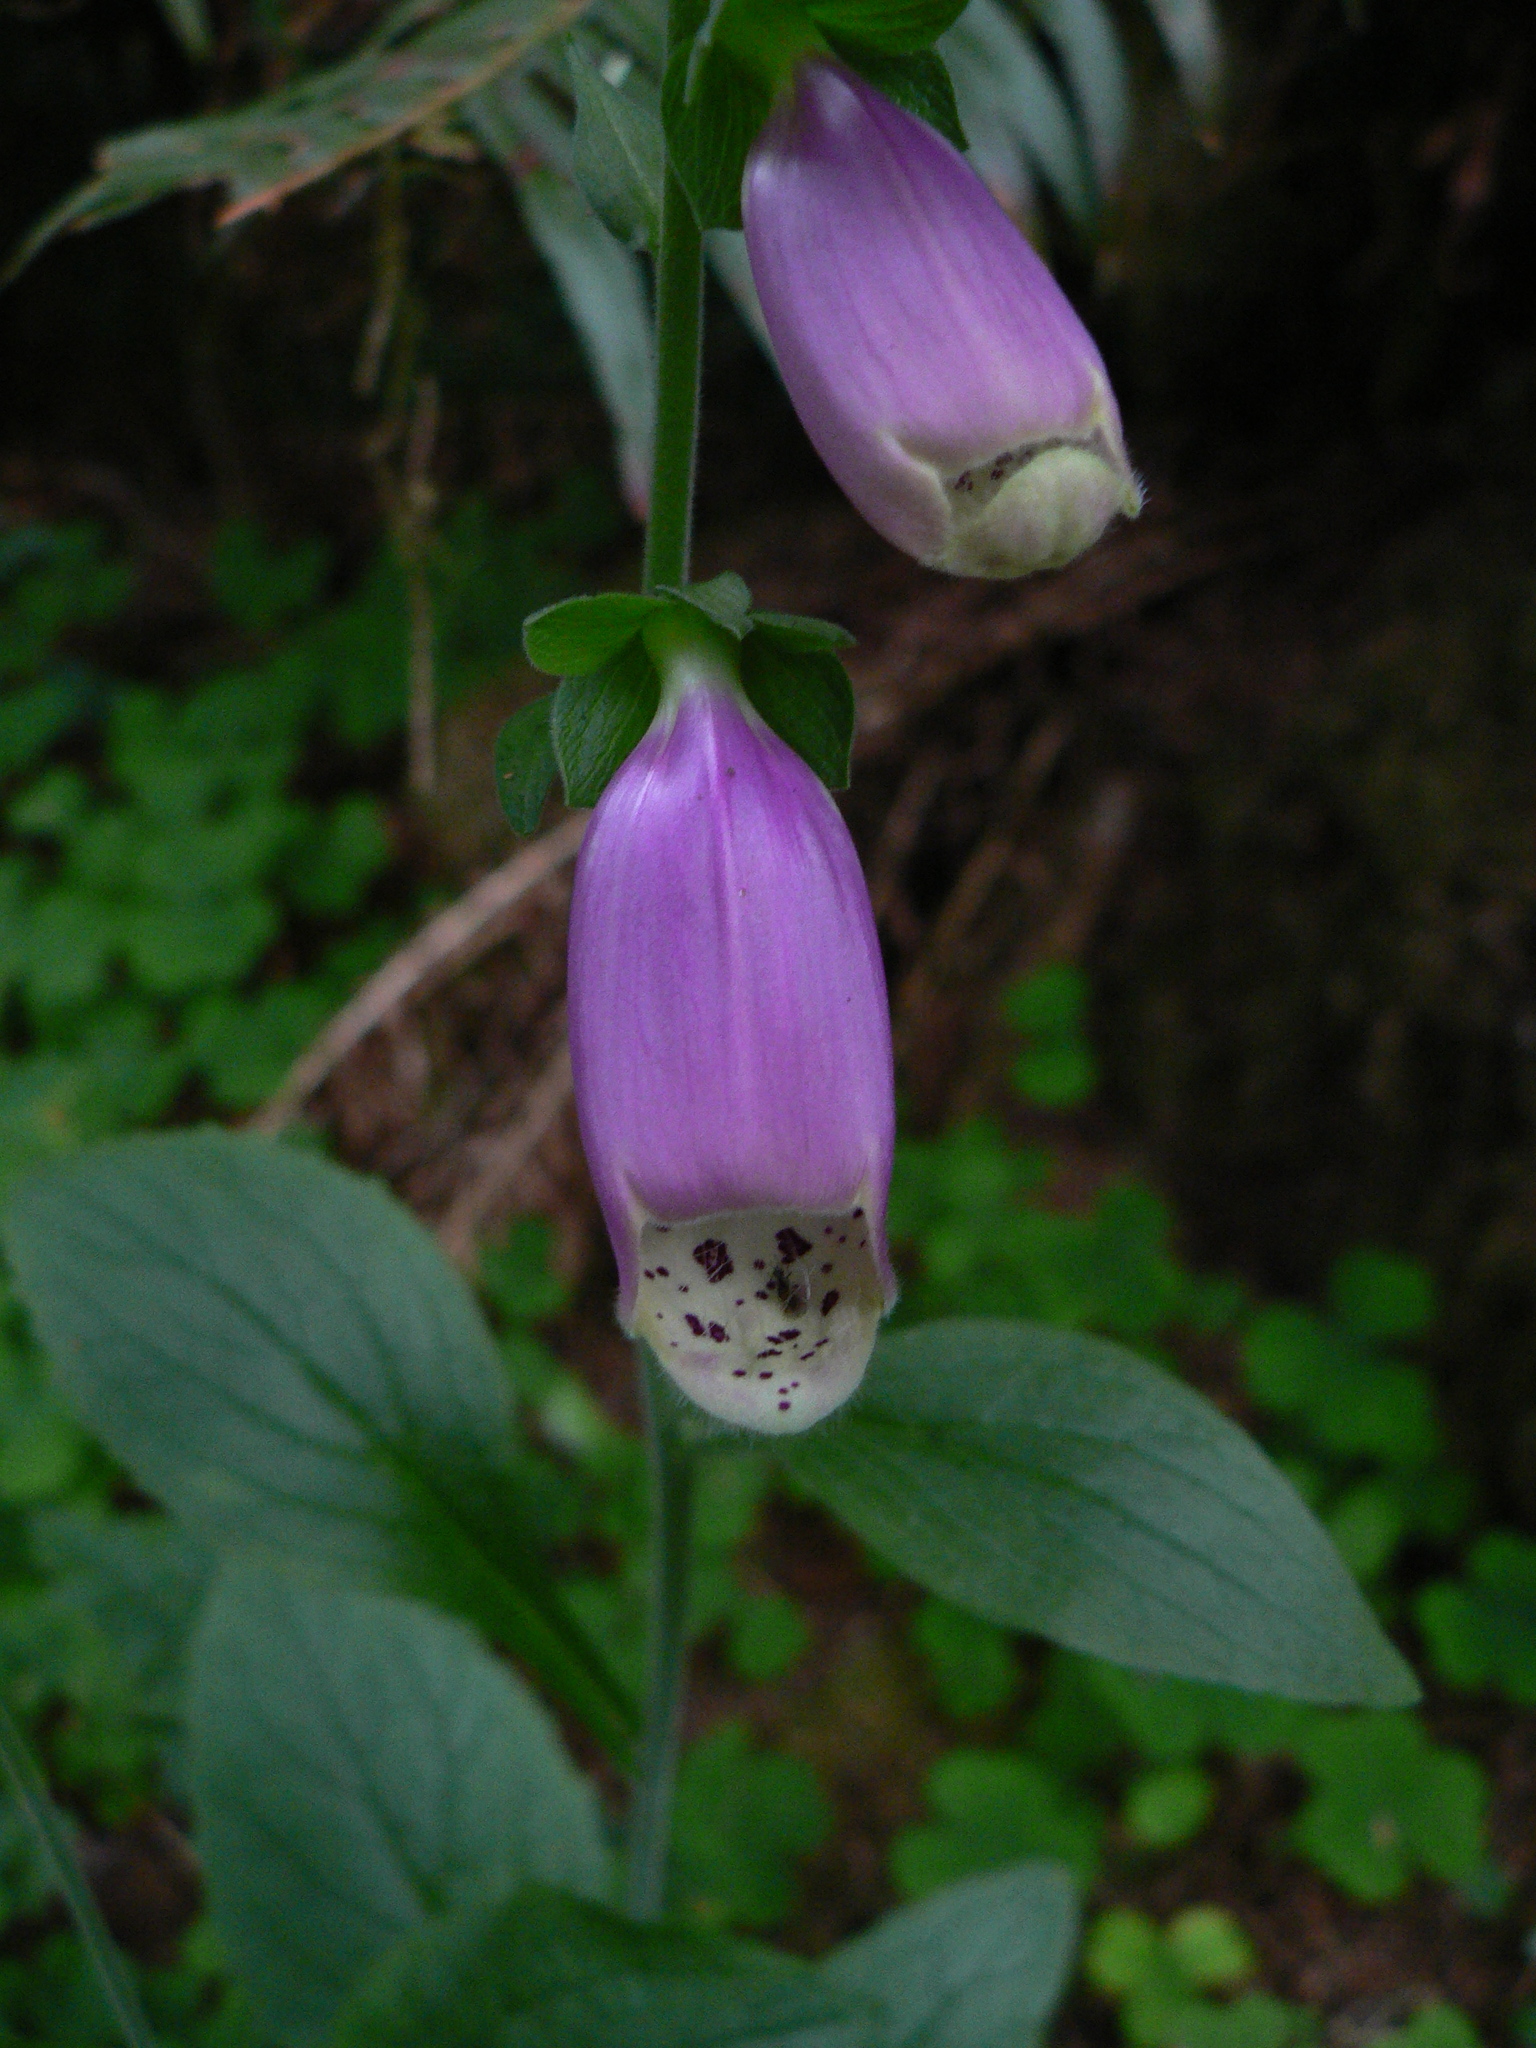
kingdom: Plantae
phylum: Tracheophyta
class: Magnoliopsida
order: Lamiales
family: Plantaginaceae
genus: Digitalis
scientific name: Digitalis purpurea
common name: Foxglove
